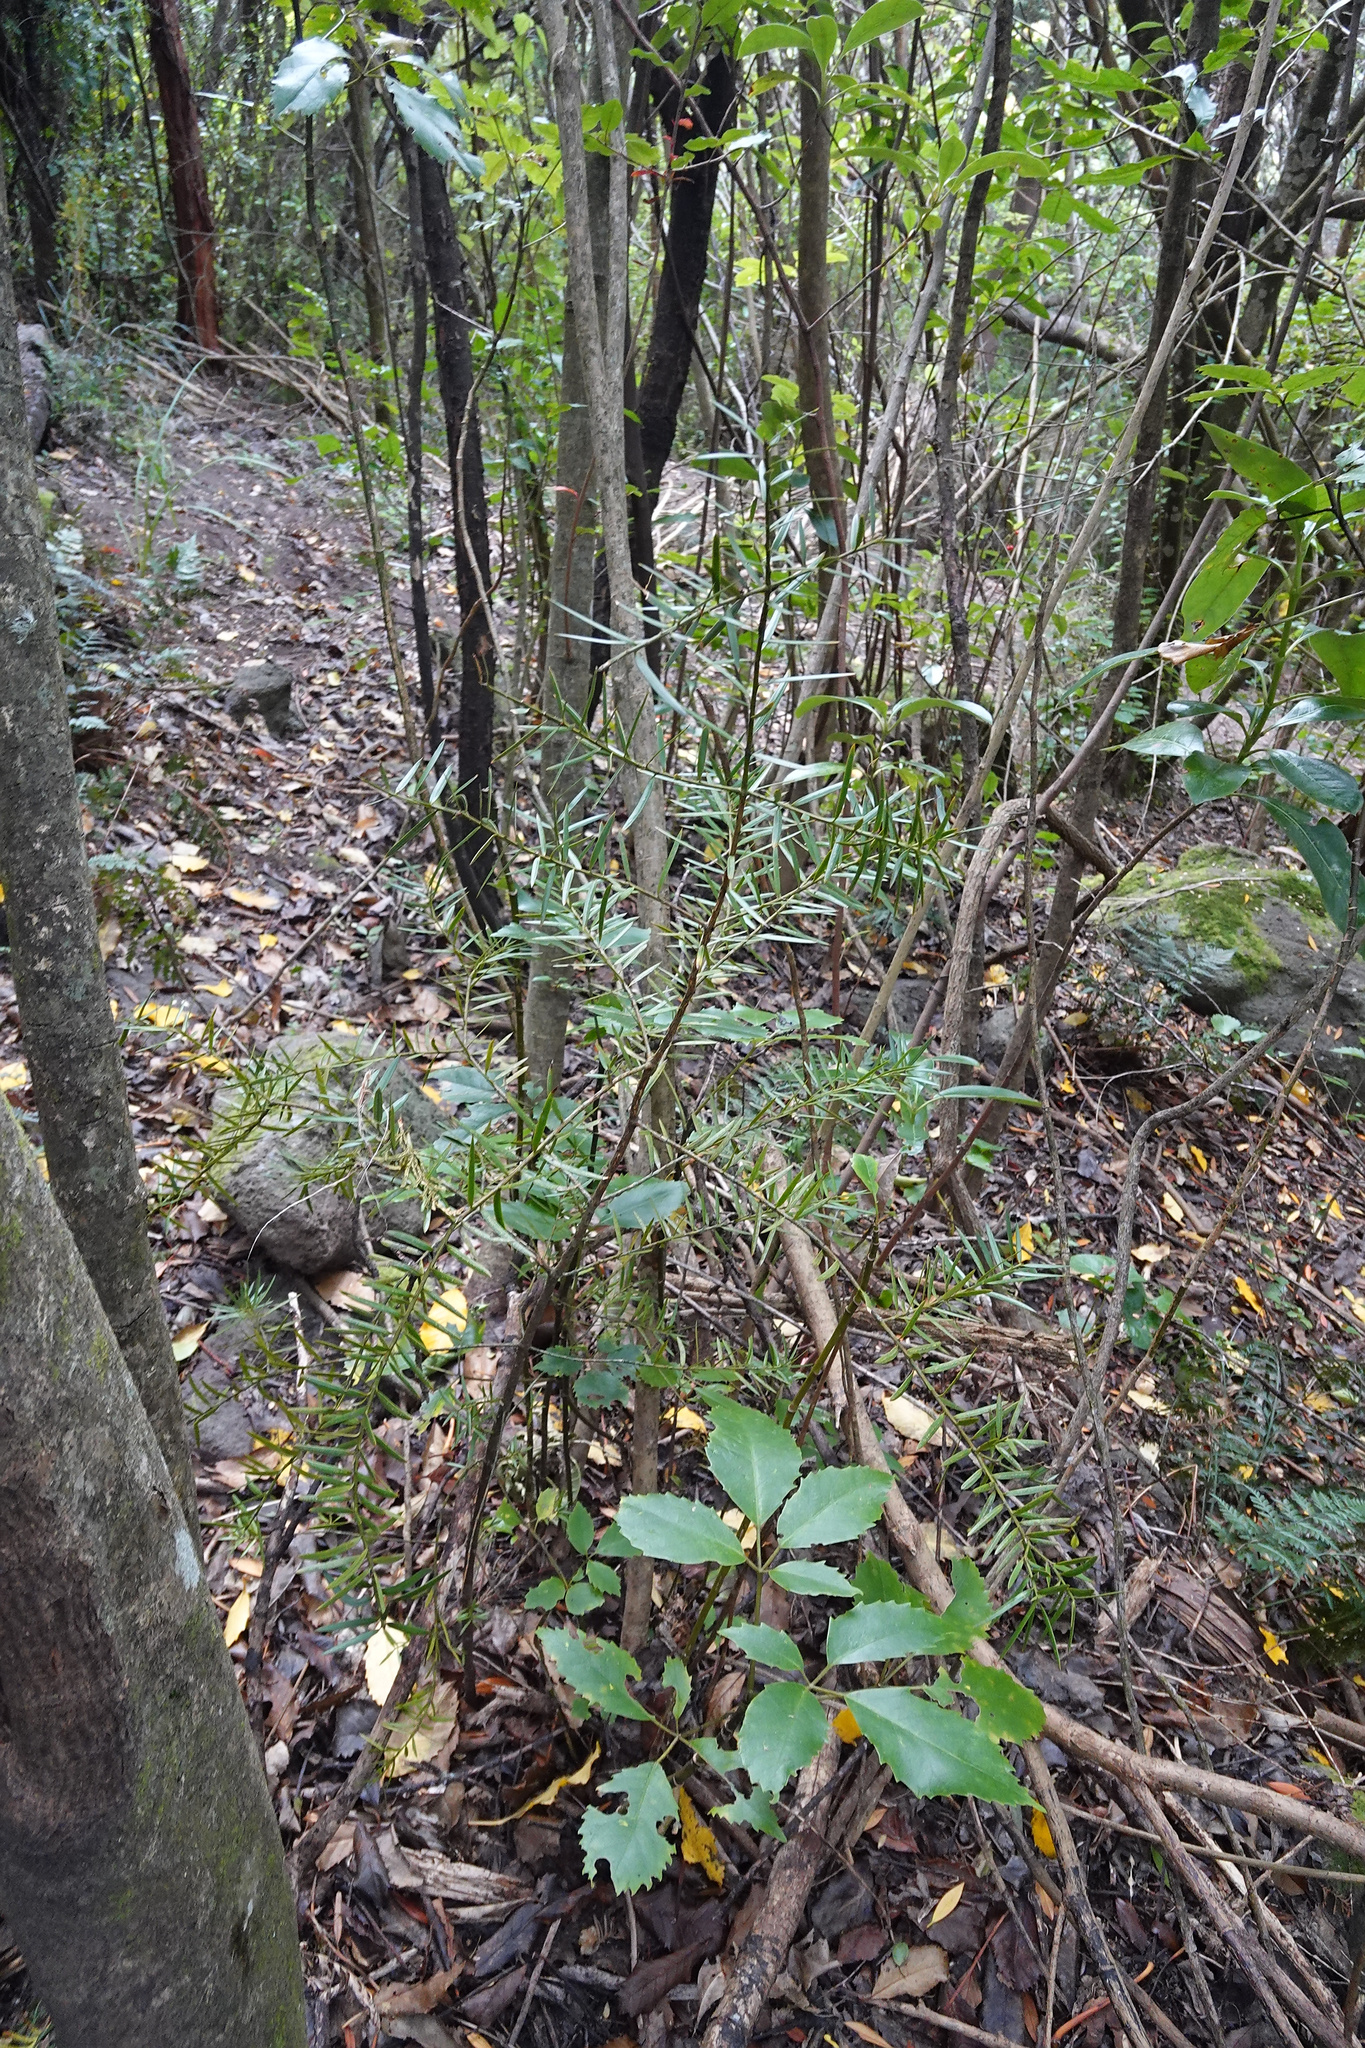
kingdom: Plantae
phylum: Tracheophyta
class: Pinopsida
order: Pinales
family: Podocarpaceae
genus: Podocarpus
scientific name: Podocarpus totara
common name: Totara
